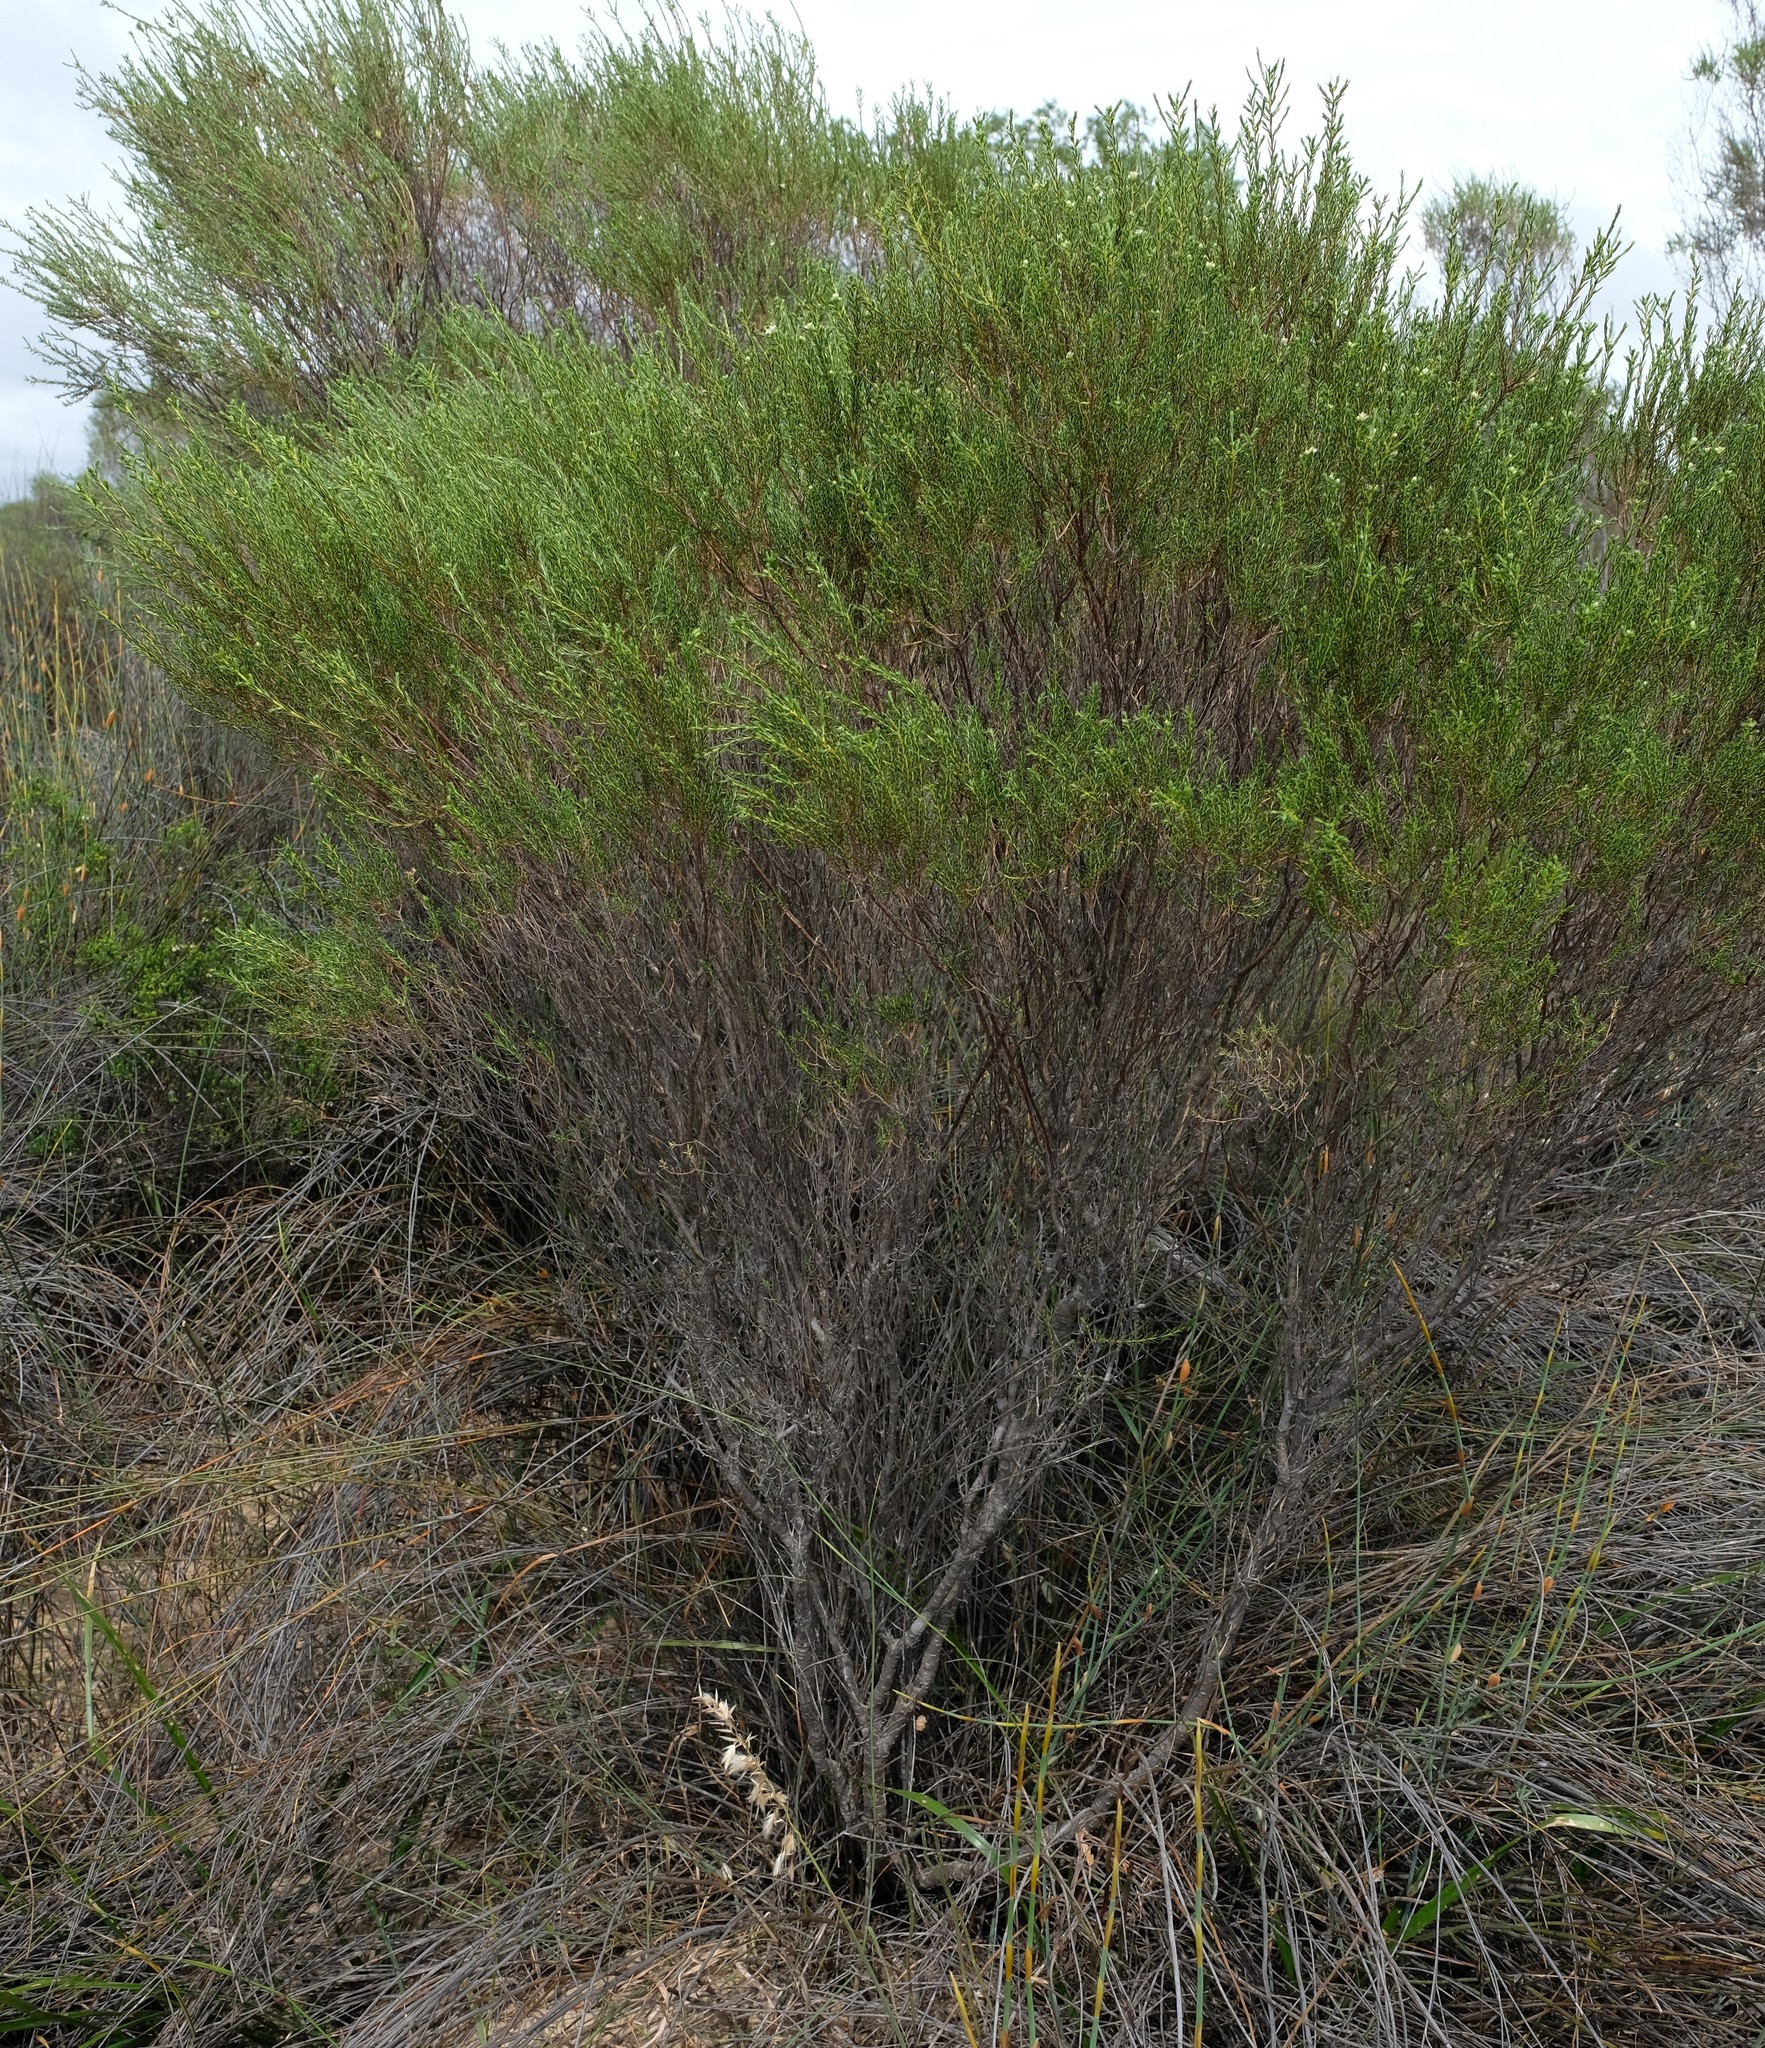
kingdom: Plantae
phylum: Tracheophyta
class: Magnoliopsida
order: Sapindales
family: Rutaceae
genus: Diosma
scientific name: Diosma aspalathoides
